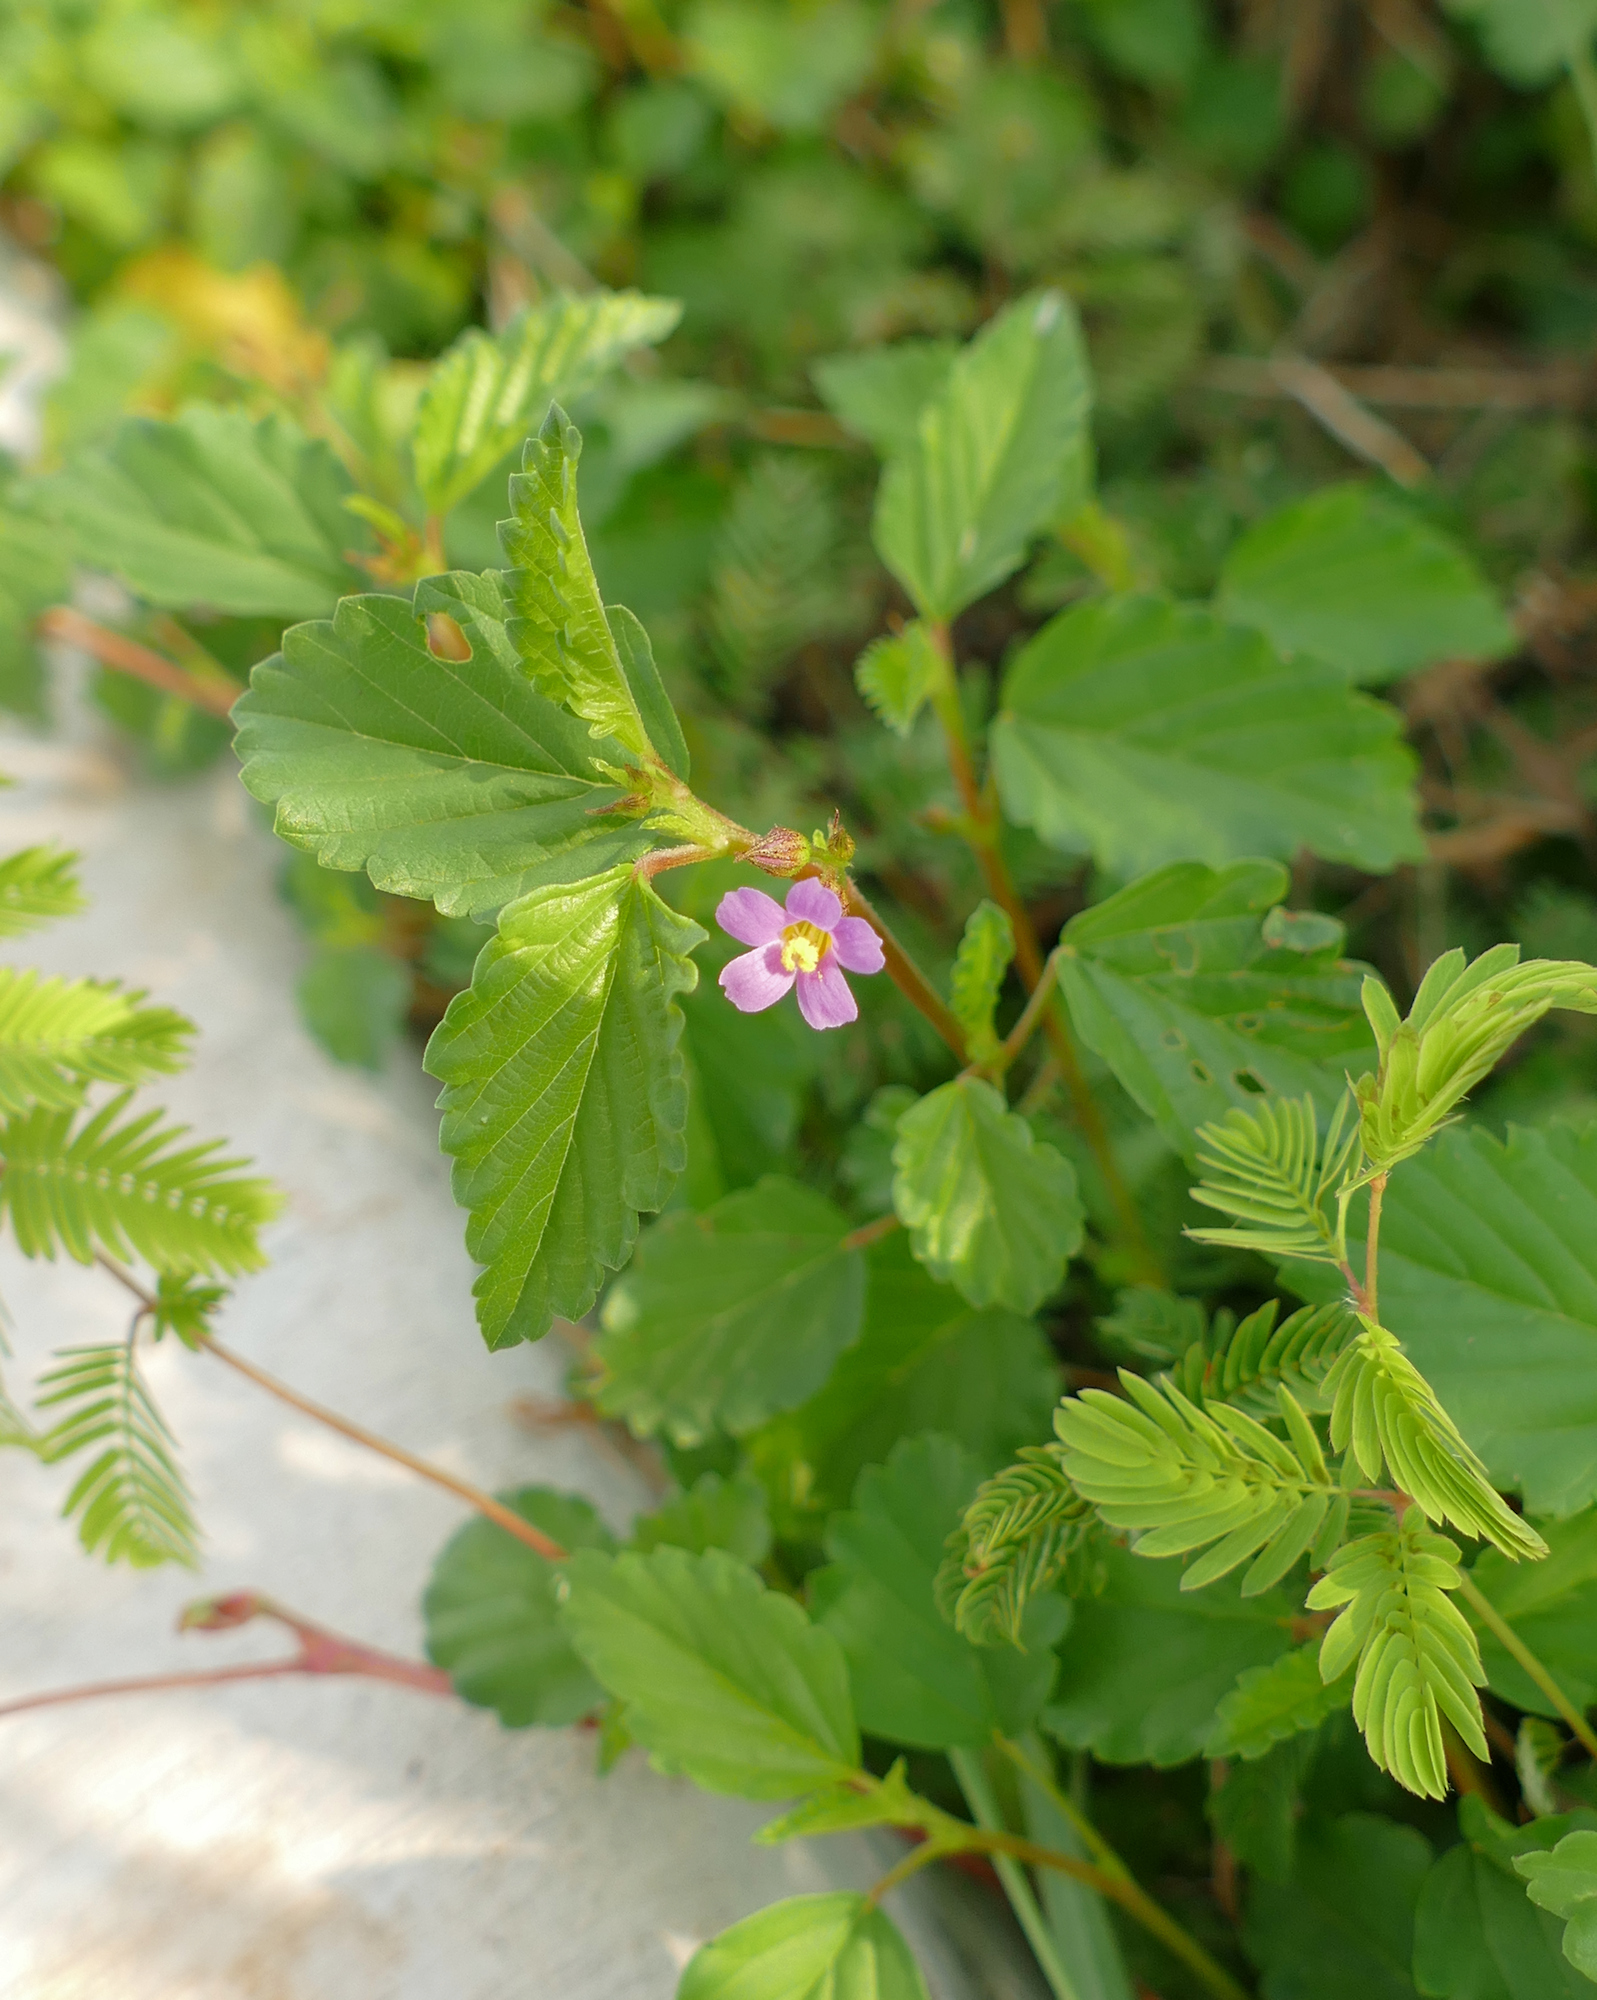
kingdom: Plantae
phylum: Tracheophyta
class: Magnoliopsida
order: Malvales
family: Malvaceae
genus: Melochia
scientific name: Melochia pyramidata
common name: Pyramidflower
